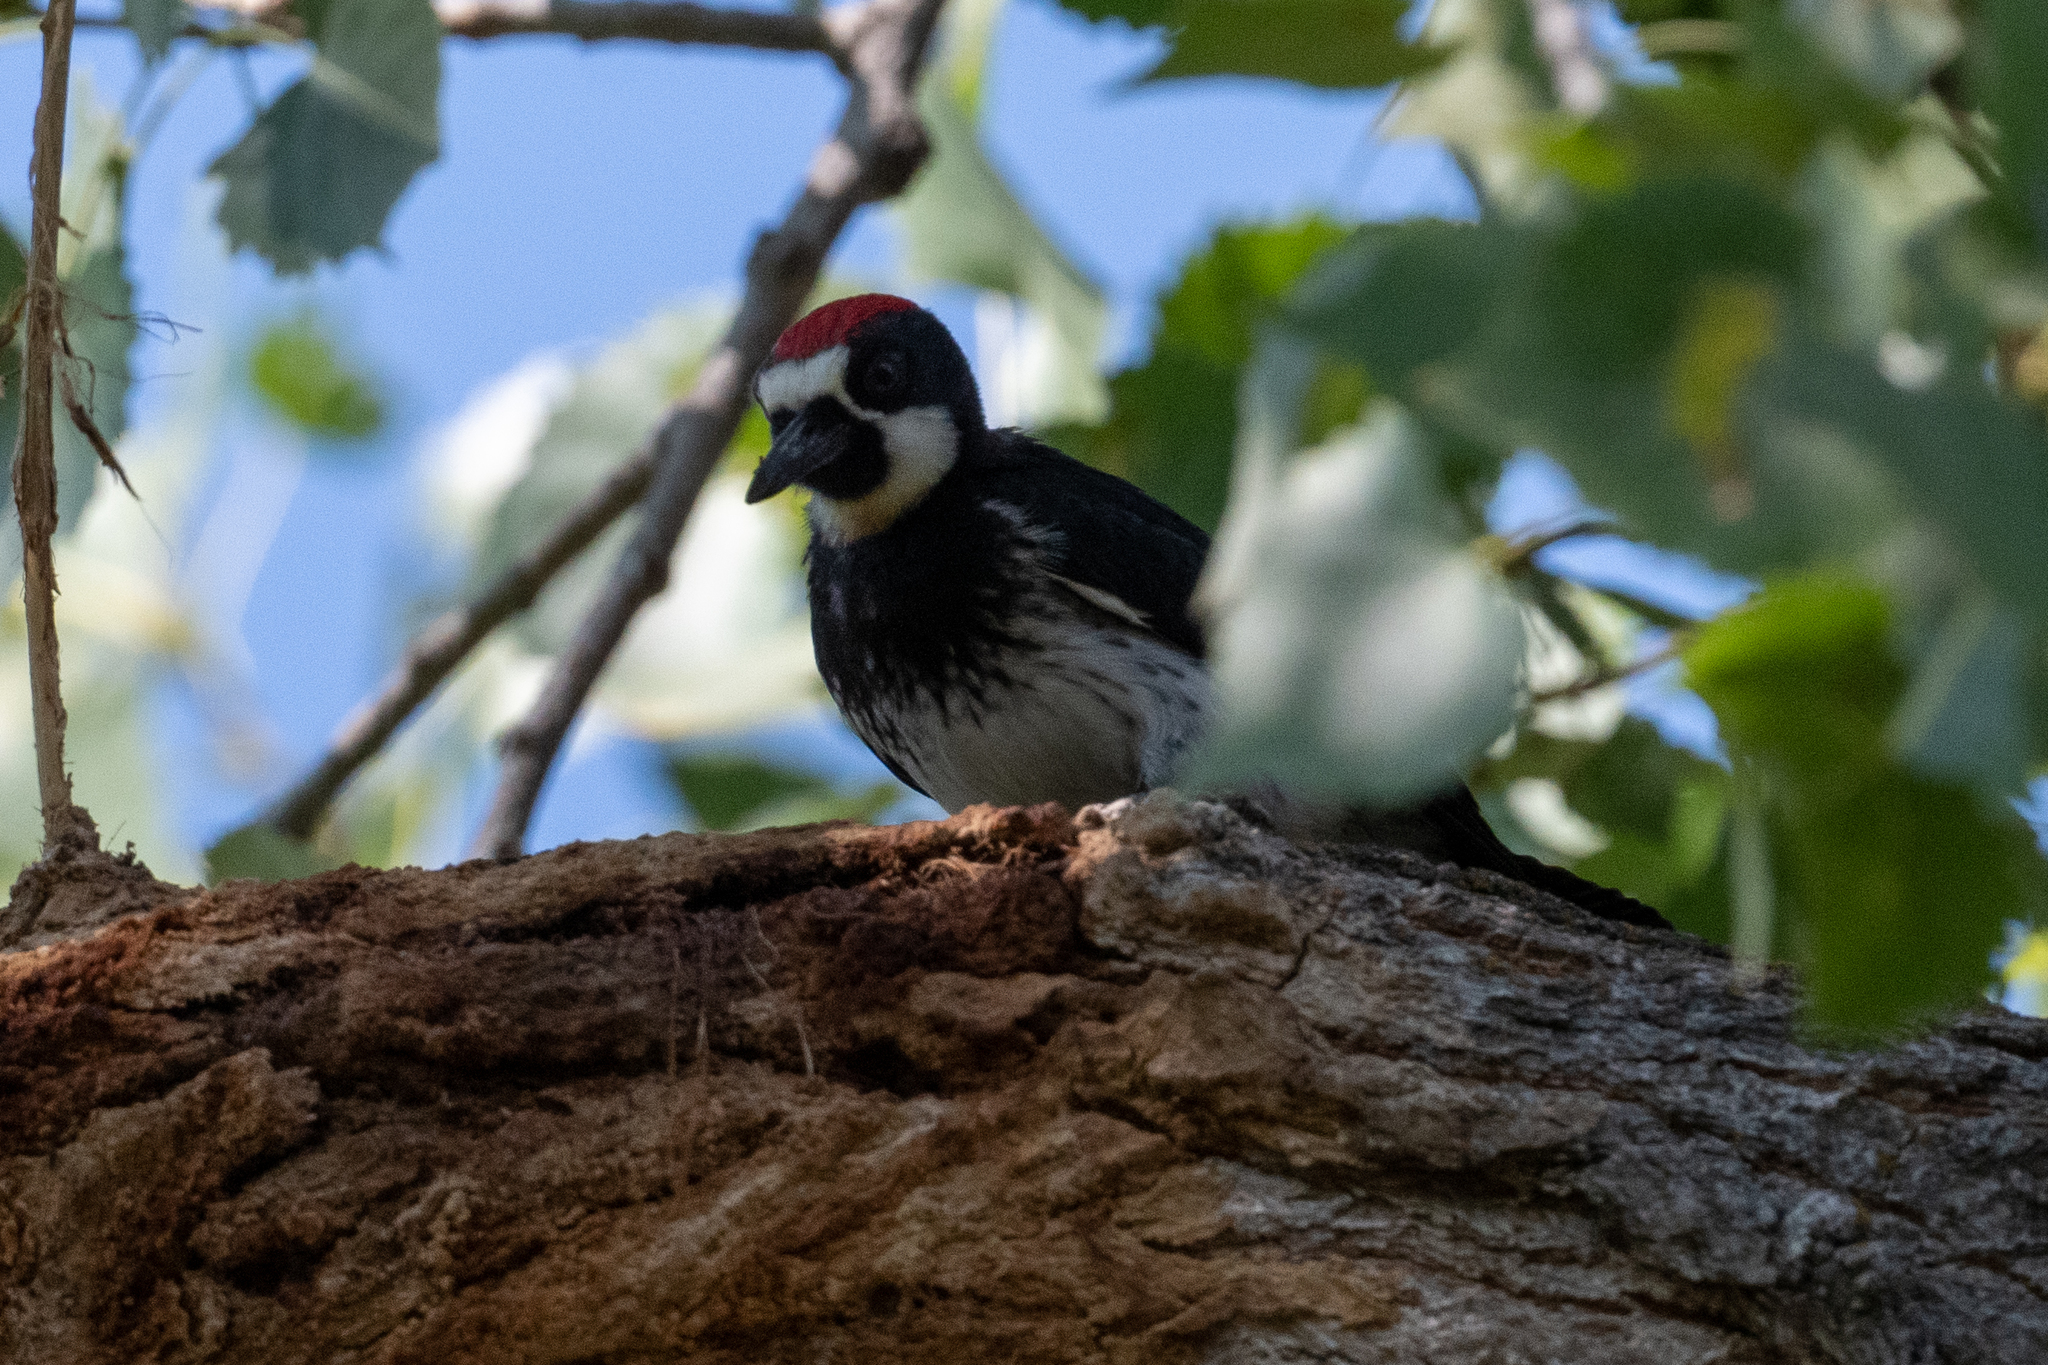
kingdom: Animalia
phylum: Chordata
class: Aves
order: Piciformes
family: Picidae
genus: Melanerpes
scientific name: Melanerpes formicivorus
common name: Acorn woodpecker
